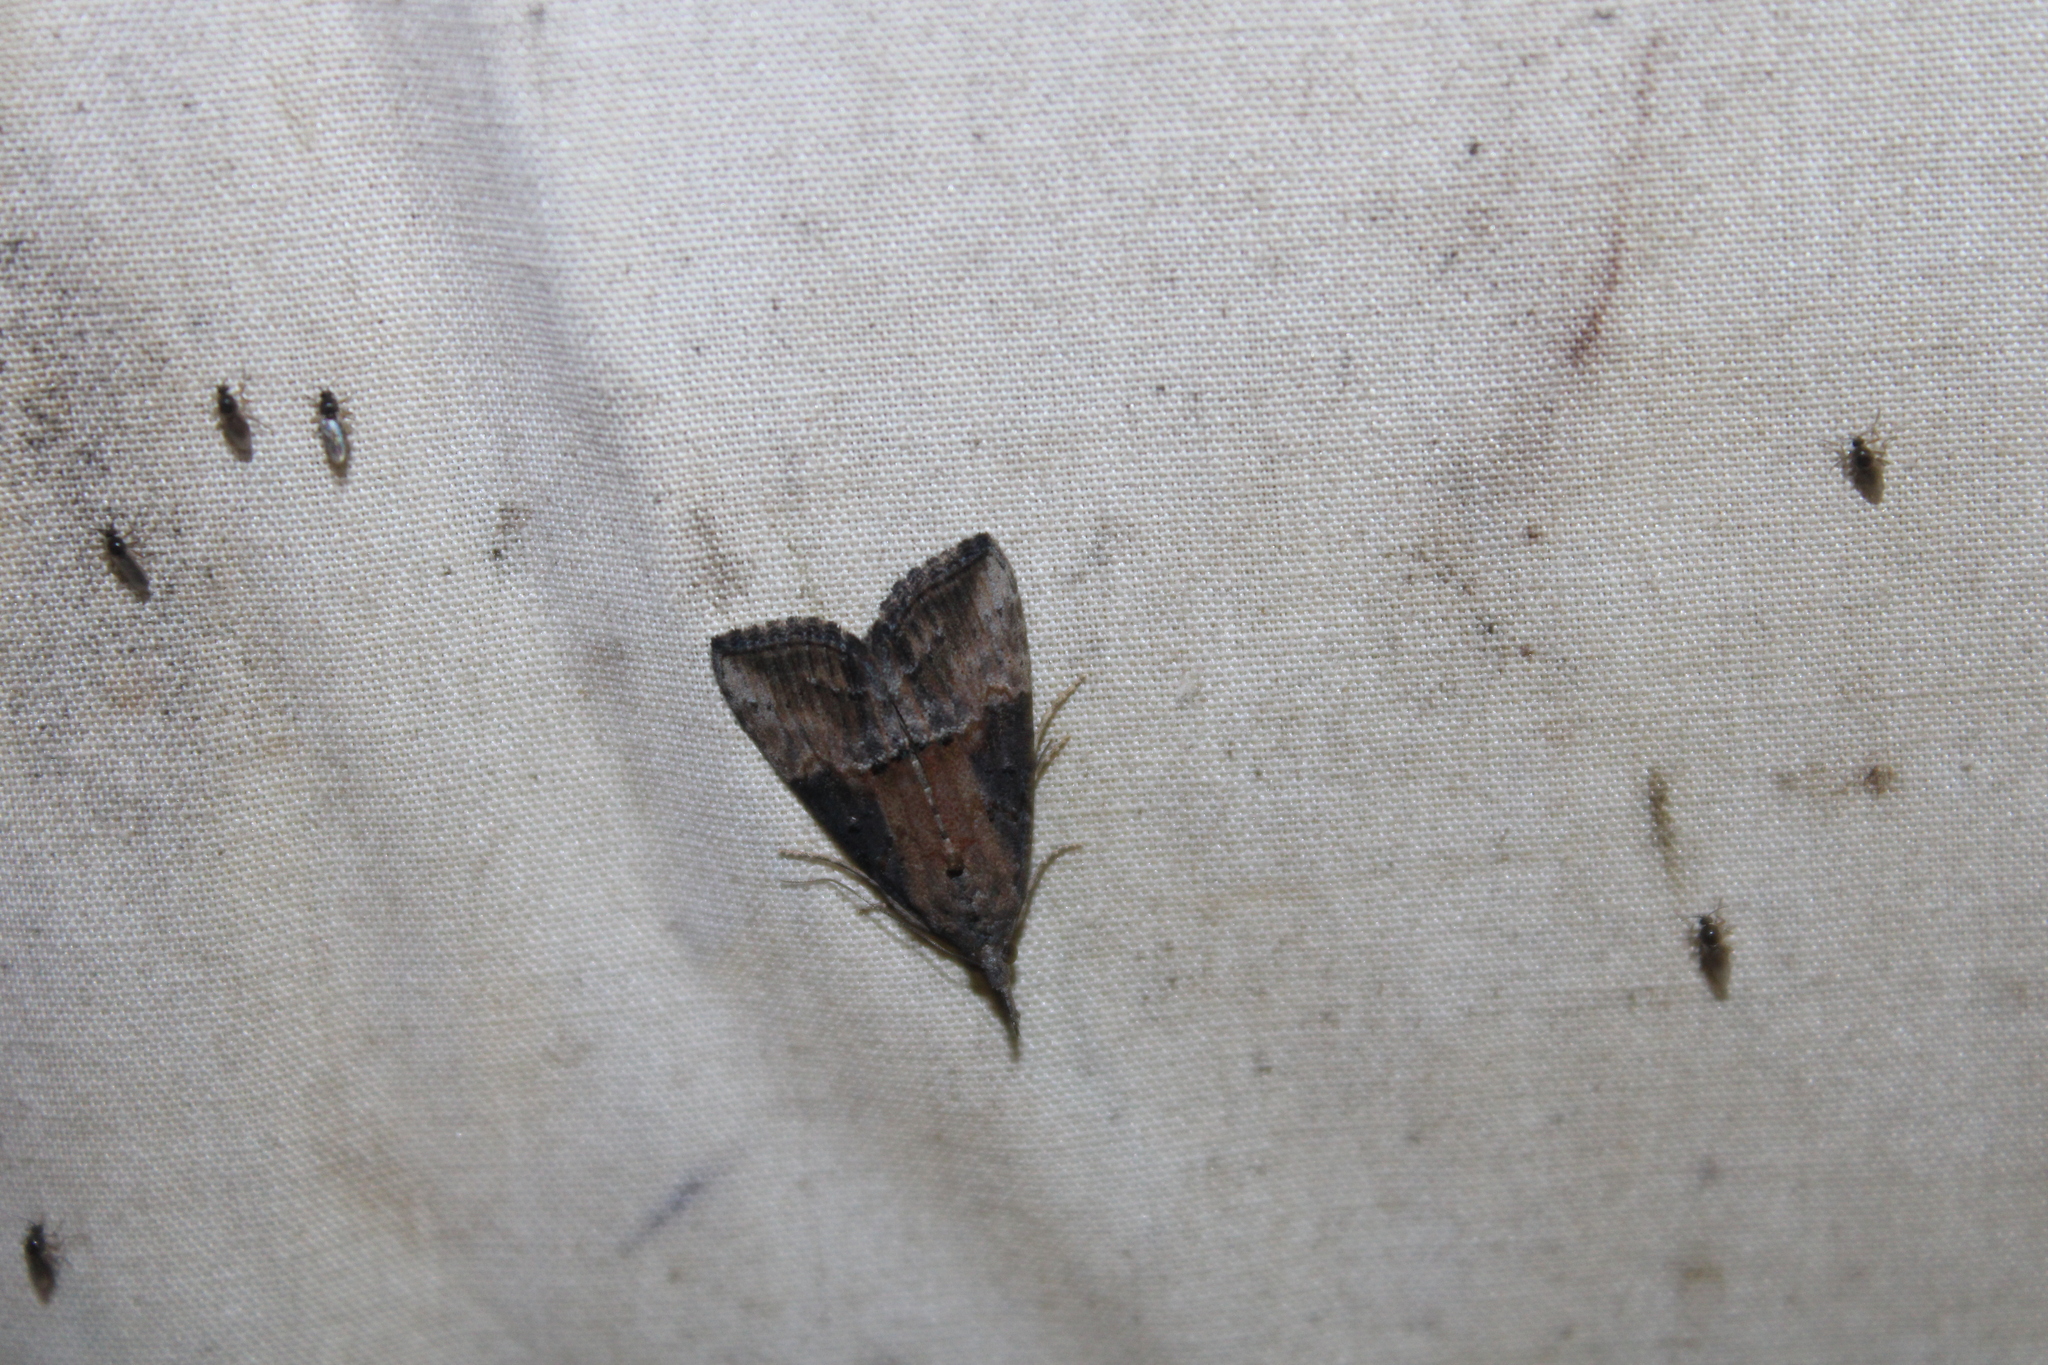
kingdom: Animalia
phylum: Arthropoda
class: Insecta
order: Lepidoptera
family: Erebidae
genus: Hypena
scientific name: Hypena scabra
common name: Green cloverworm
